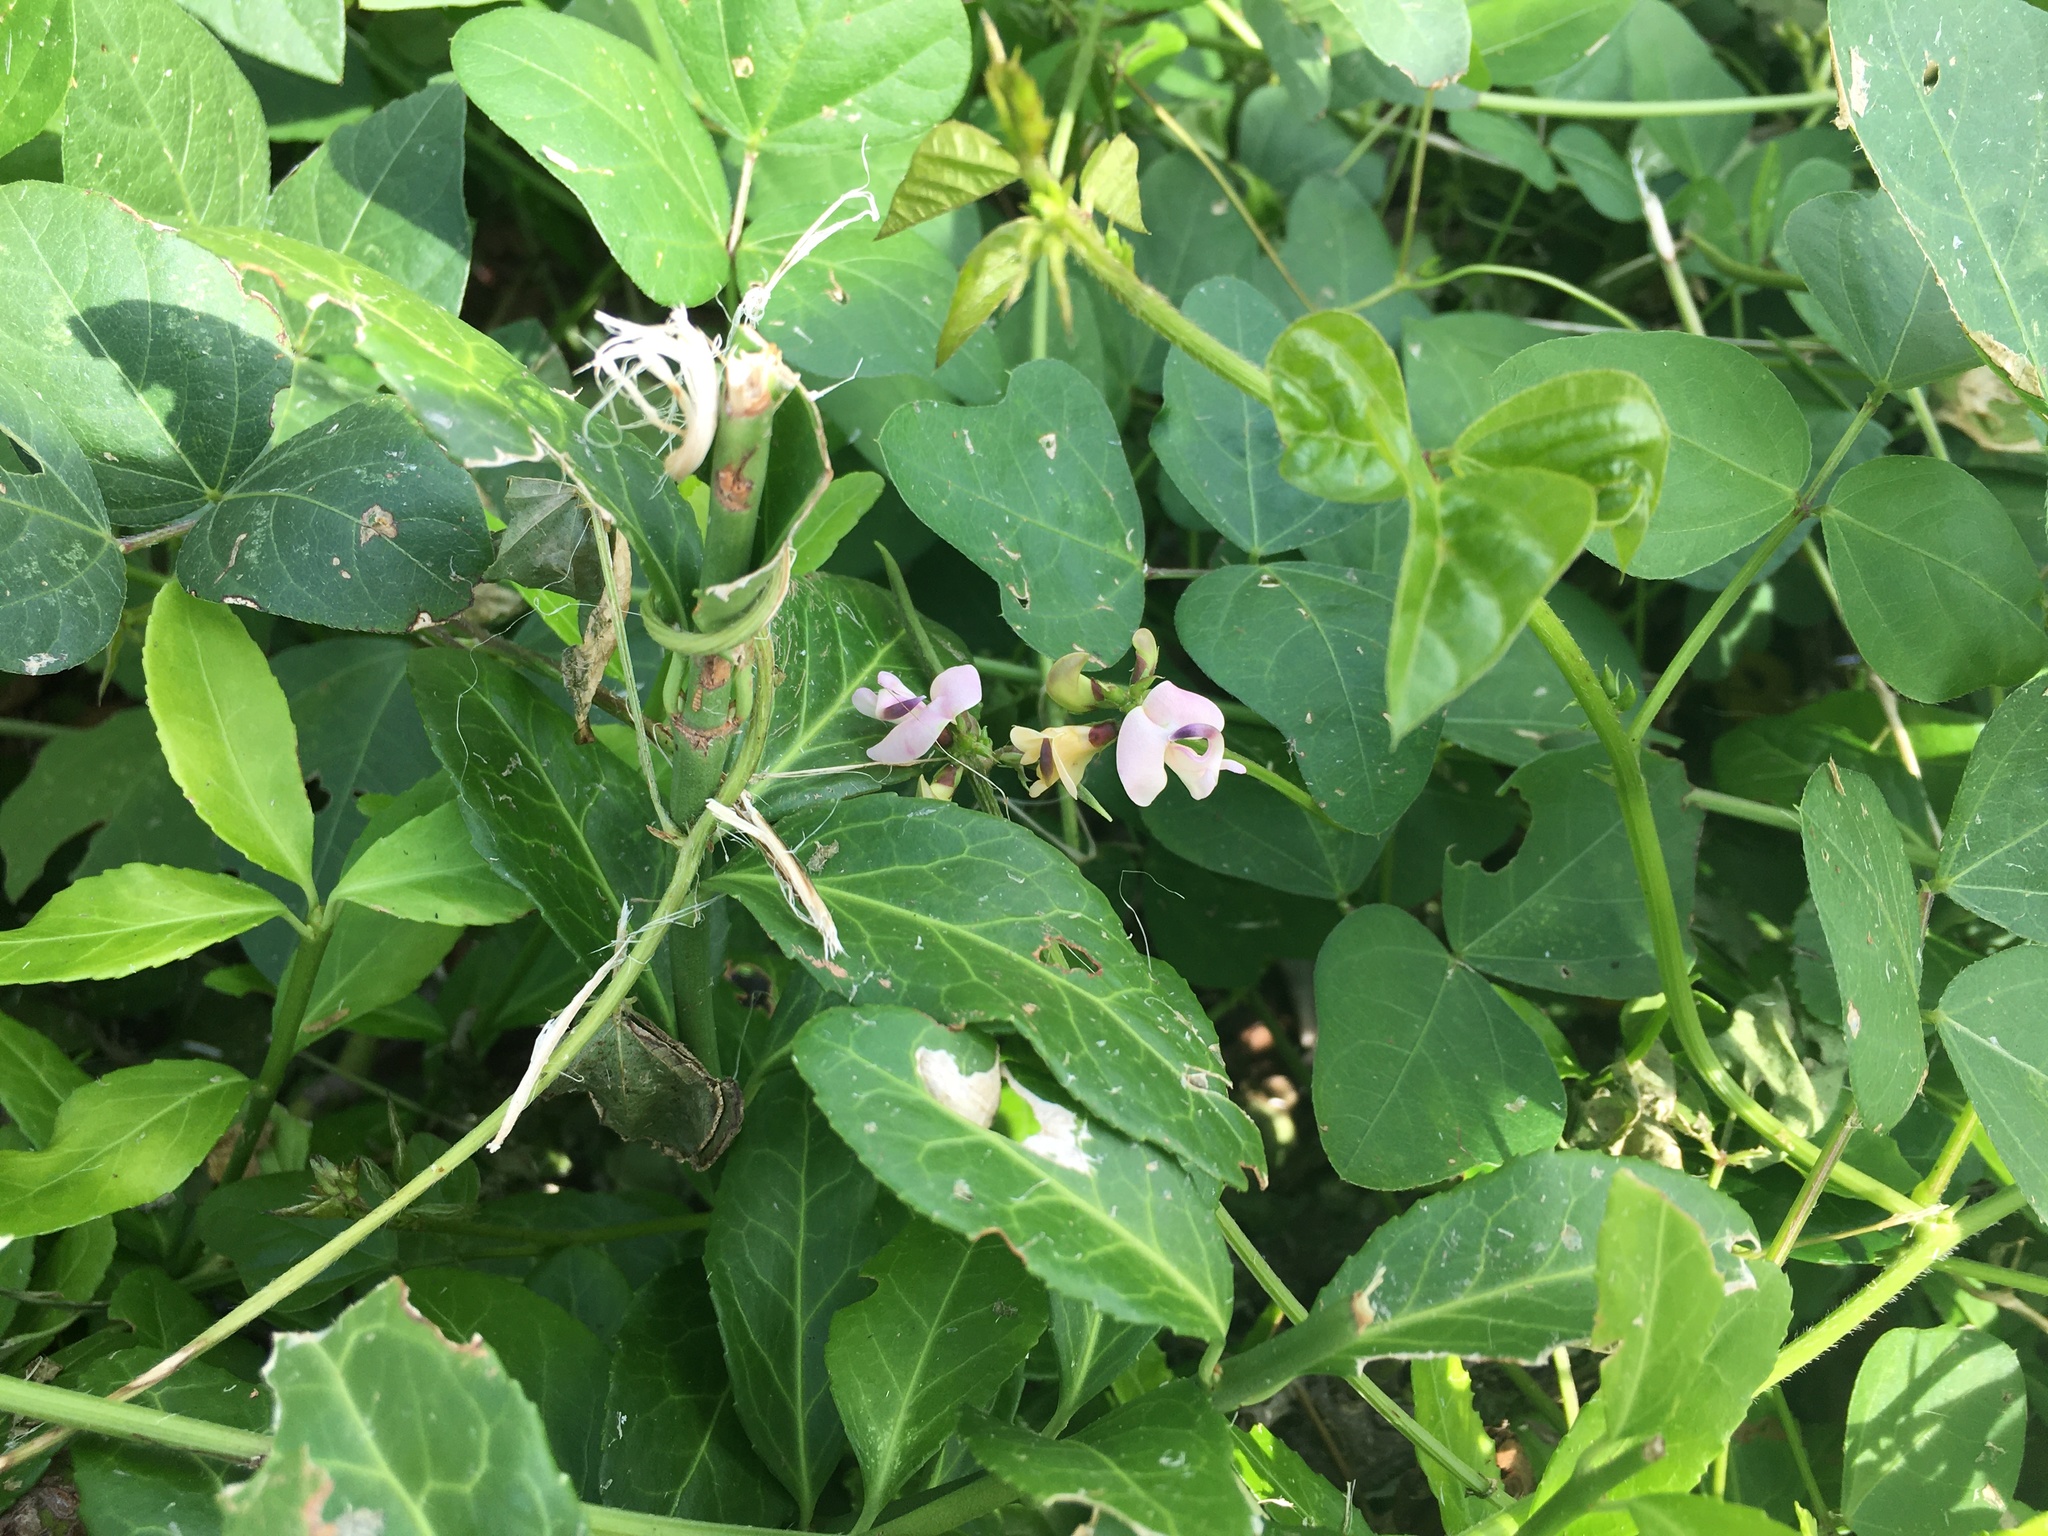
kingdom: Plantae
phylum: Tracheophyta
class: Magnoliopsida
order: Fabales
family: Fabaceae
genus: Strophostyles
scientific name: Strophostyles helvola
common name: Trailing wild bean
